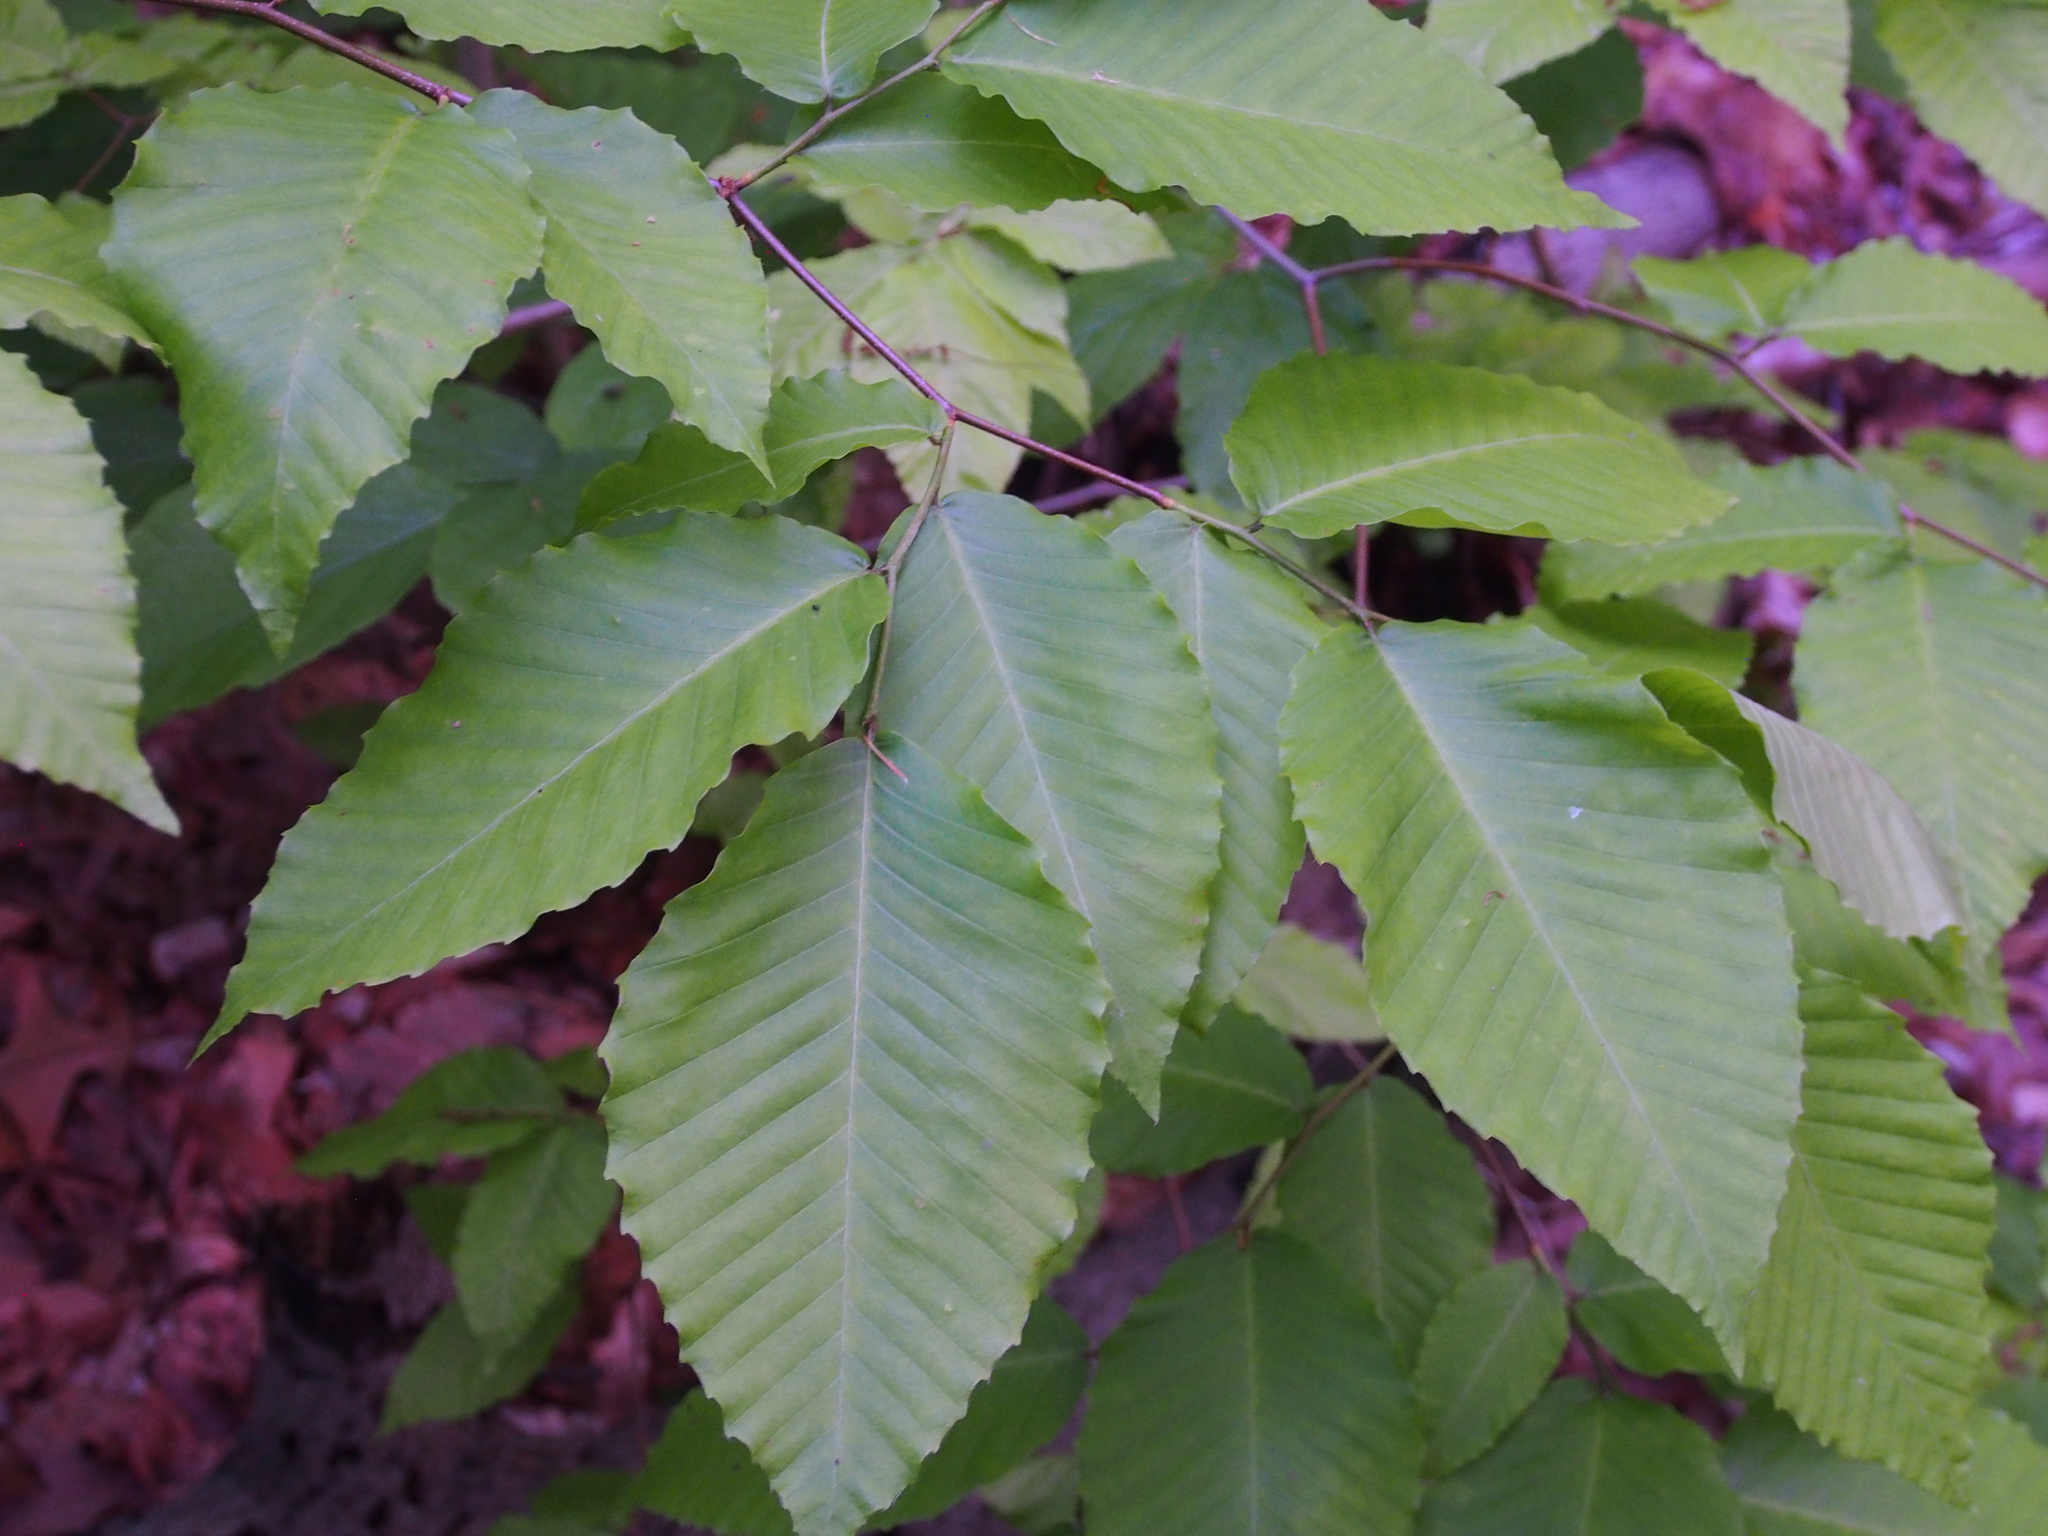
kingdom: Plantae
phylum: Tracheophyta
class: Magnoliopsida
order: Fagales
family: Fagaceae
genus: Fagus
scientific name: Fagus grandifolia
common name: American beech
